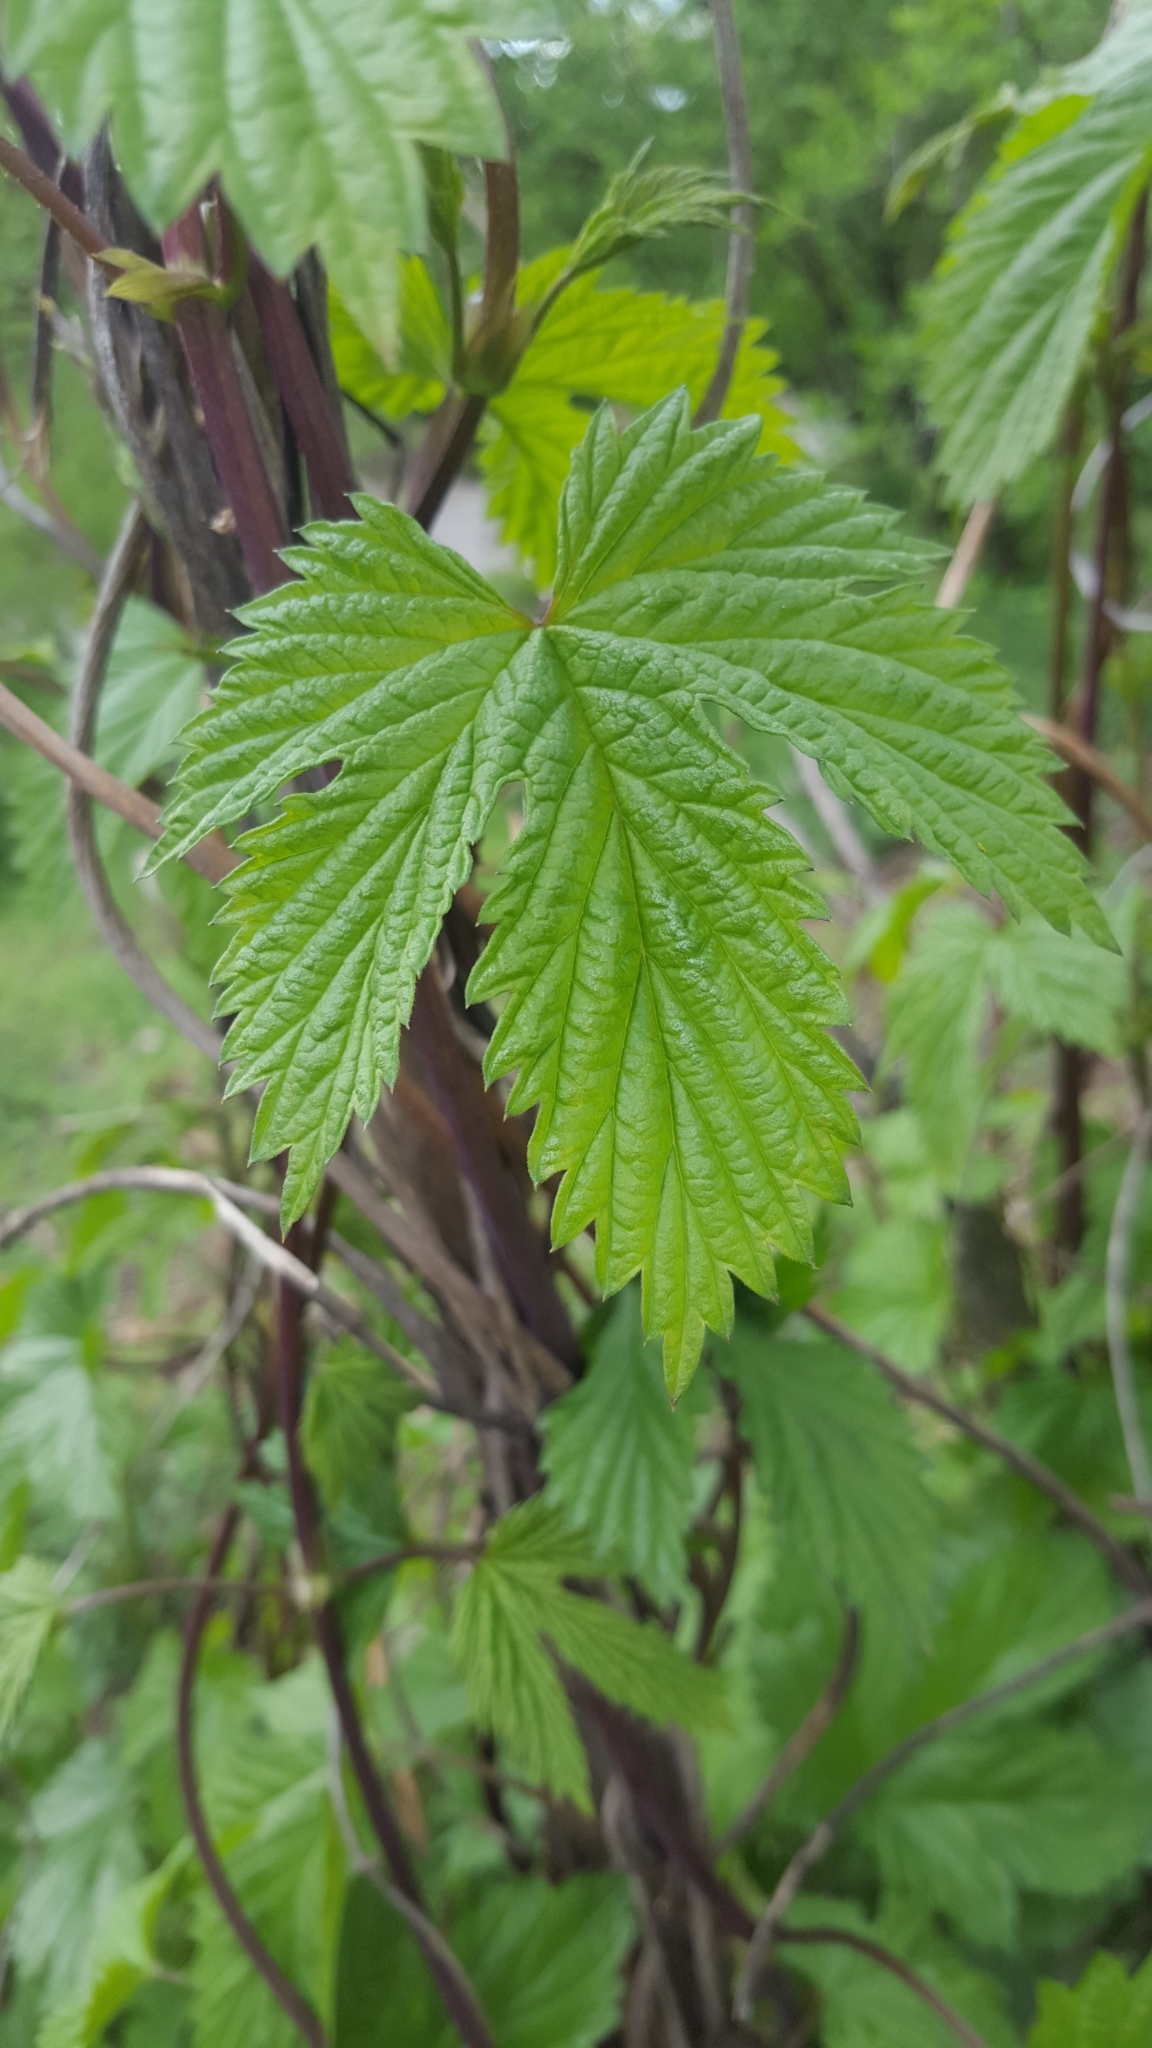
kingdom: Plantae
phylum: Tracheophyta
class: Magnoliopsida
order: Rosales
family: Cannabaceae
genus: Humulus
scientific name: Humulus lupulus
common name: Hop
